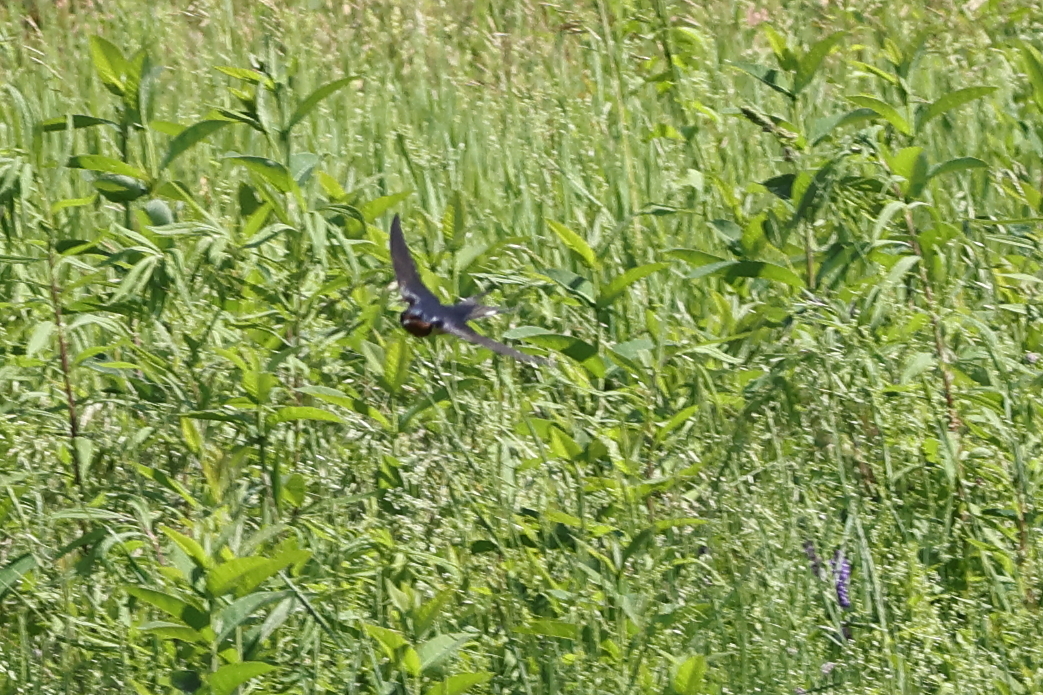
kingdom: Animalia
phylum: Chordata
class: Aves
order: Passeriformes
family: Hirundinidae
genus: Hirundo
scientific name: Hirundo rustica
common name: Barn swallow
